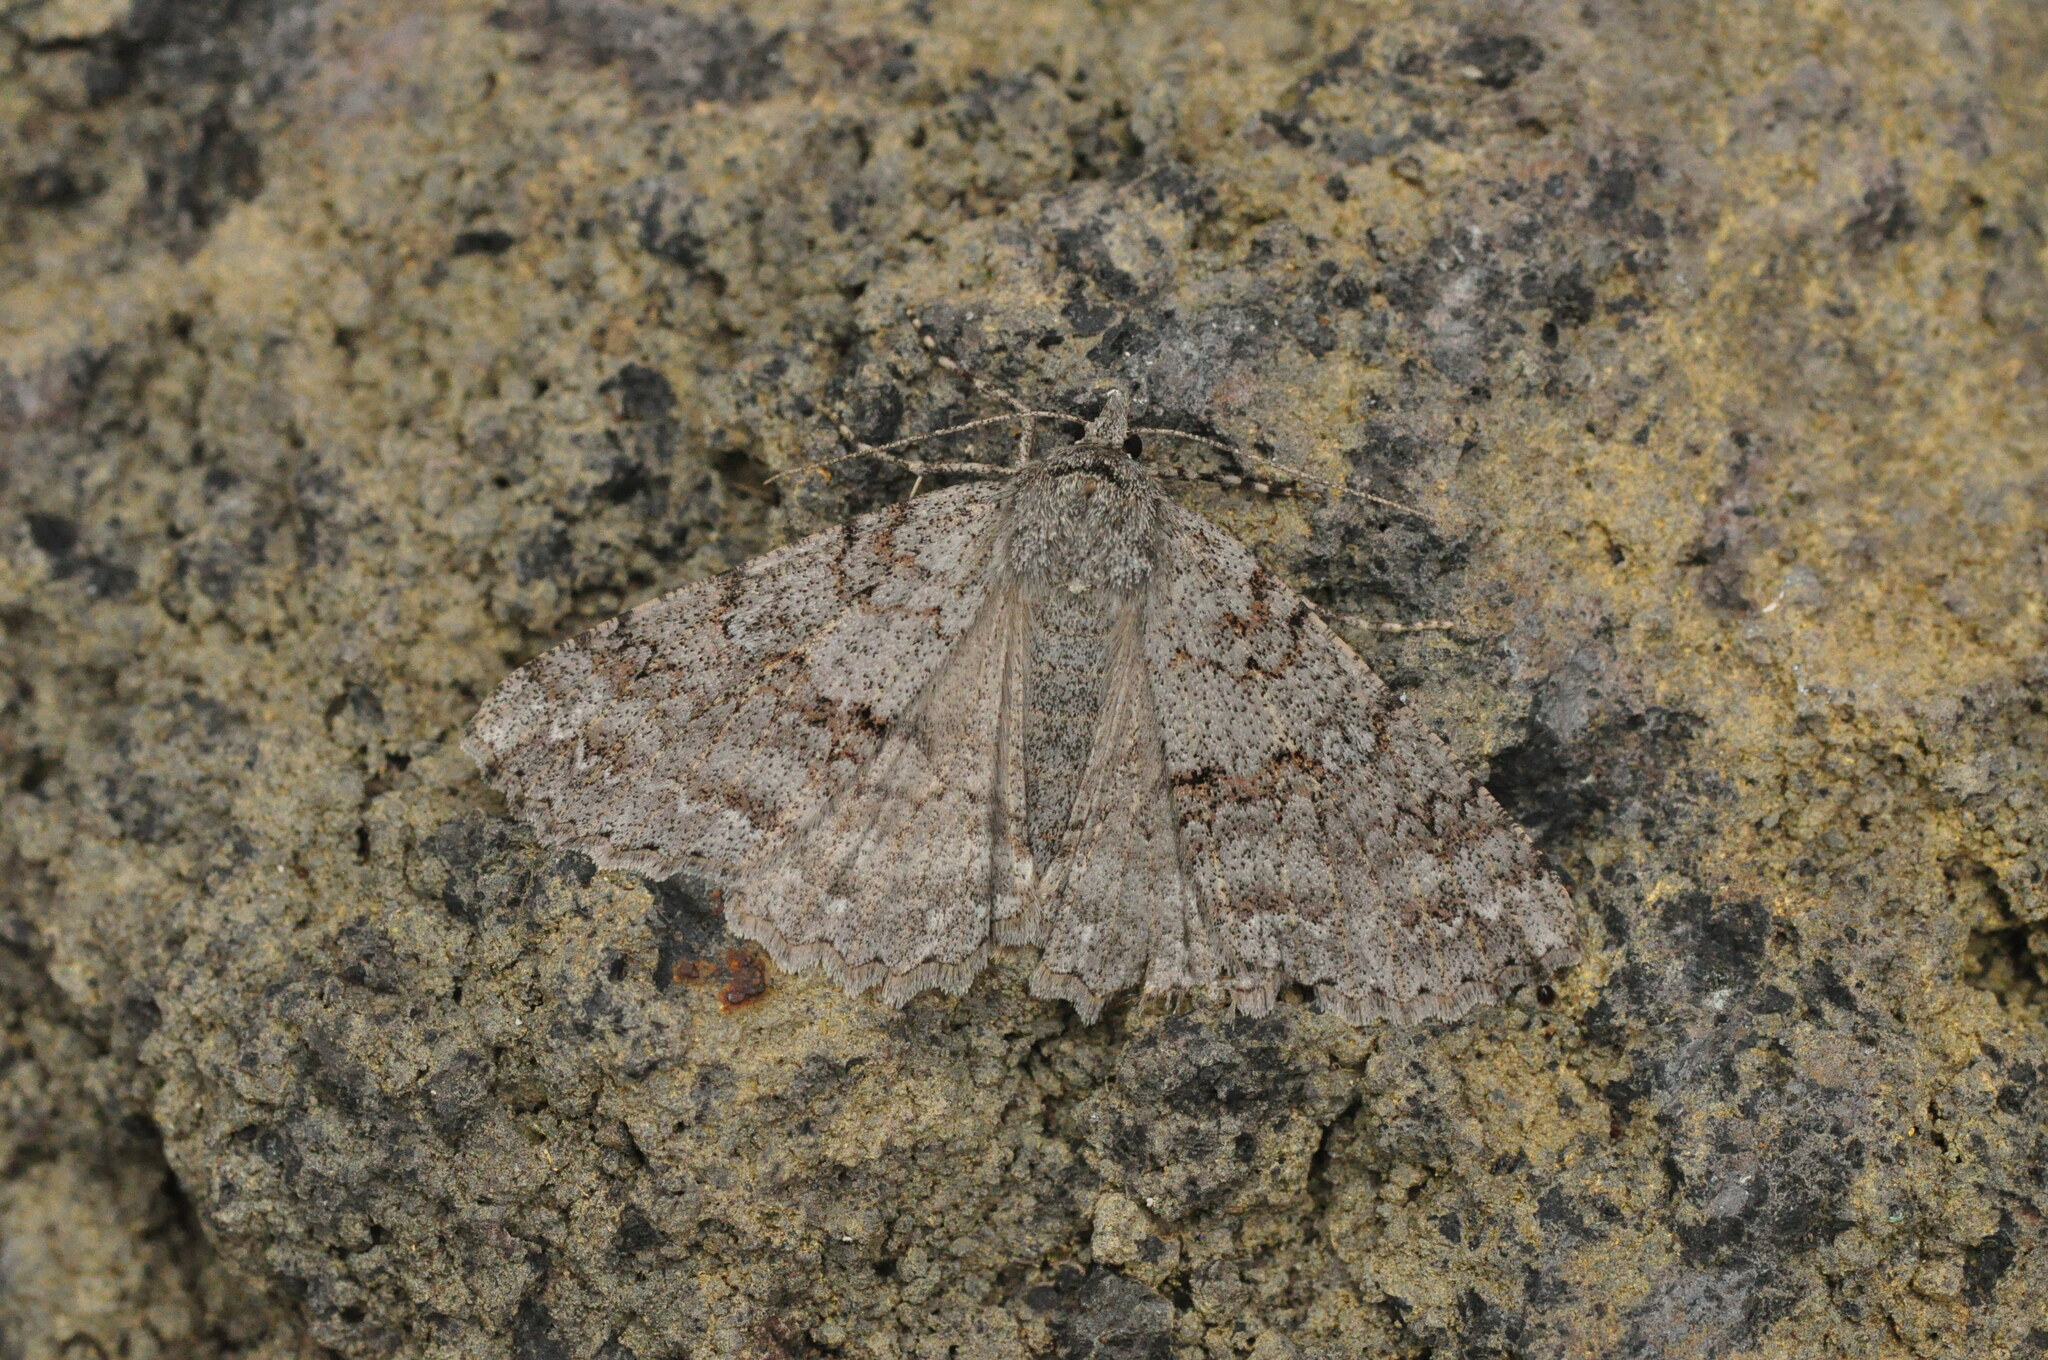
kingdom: Animalia
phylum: Arthropoda
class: Insecta
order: Lepidoptera
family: Geometridae
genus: Ascotis
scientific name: Ascotis fortunata
